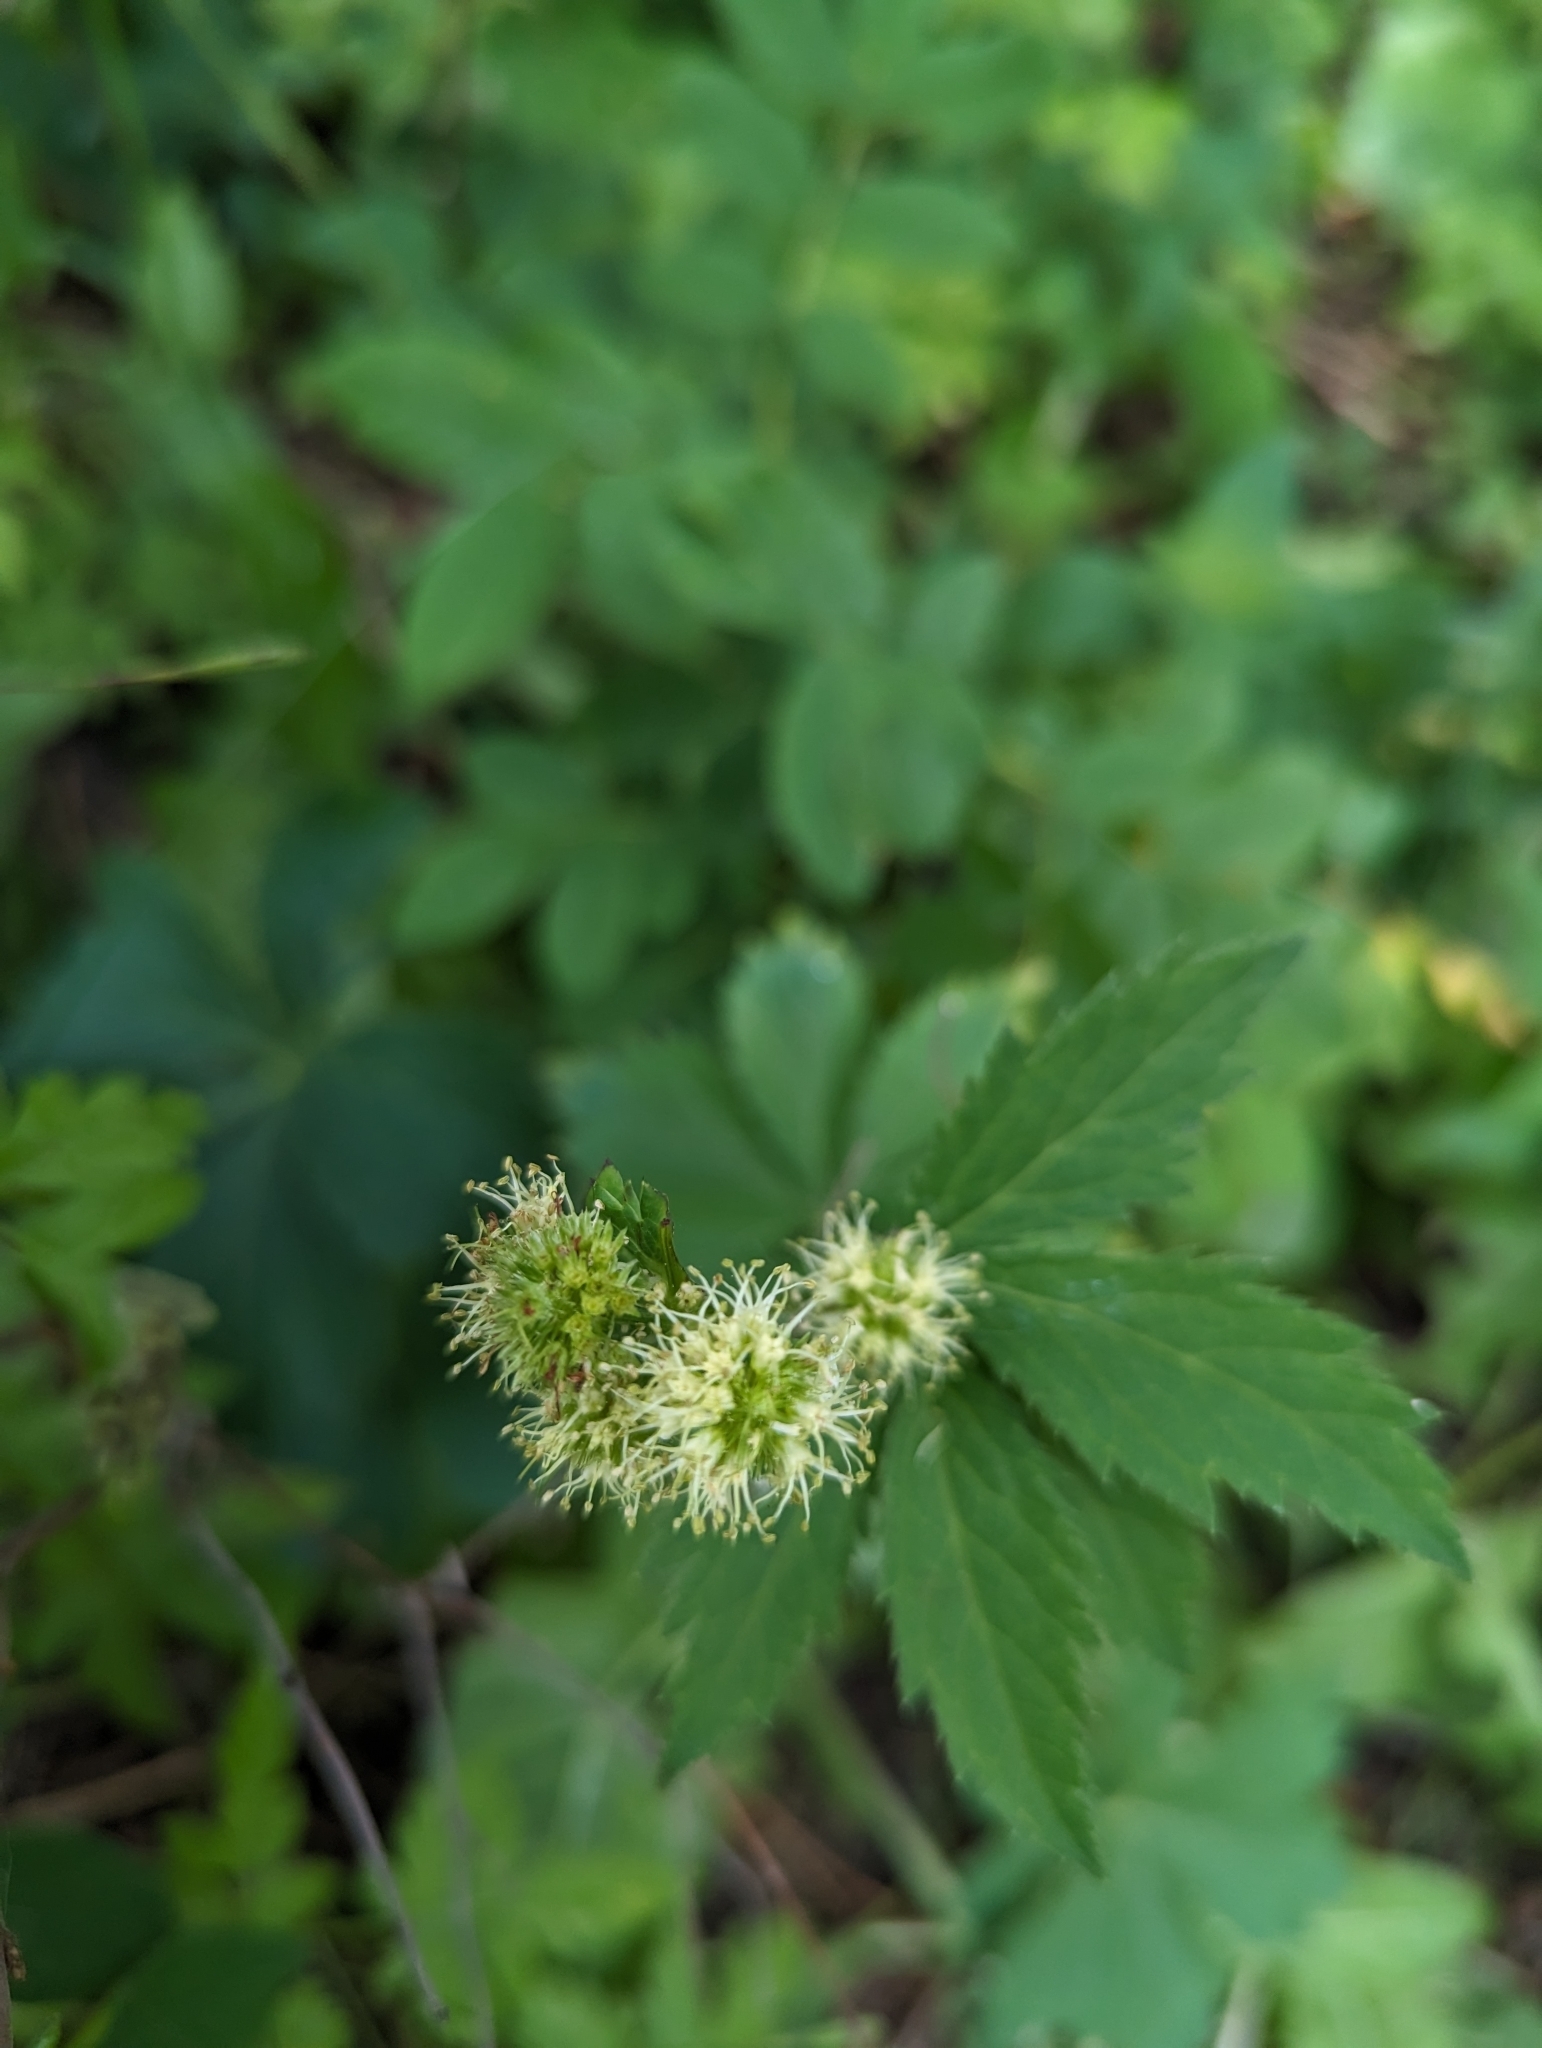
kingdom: Plantae
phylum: Tracheophyta
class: Magnoliopsida
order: Apiales
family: Apiaceae
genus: Sanicula
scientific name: Sanicula marilandica
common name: Black snakeroot
